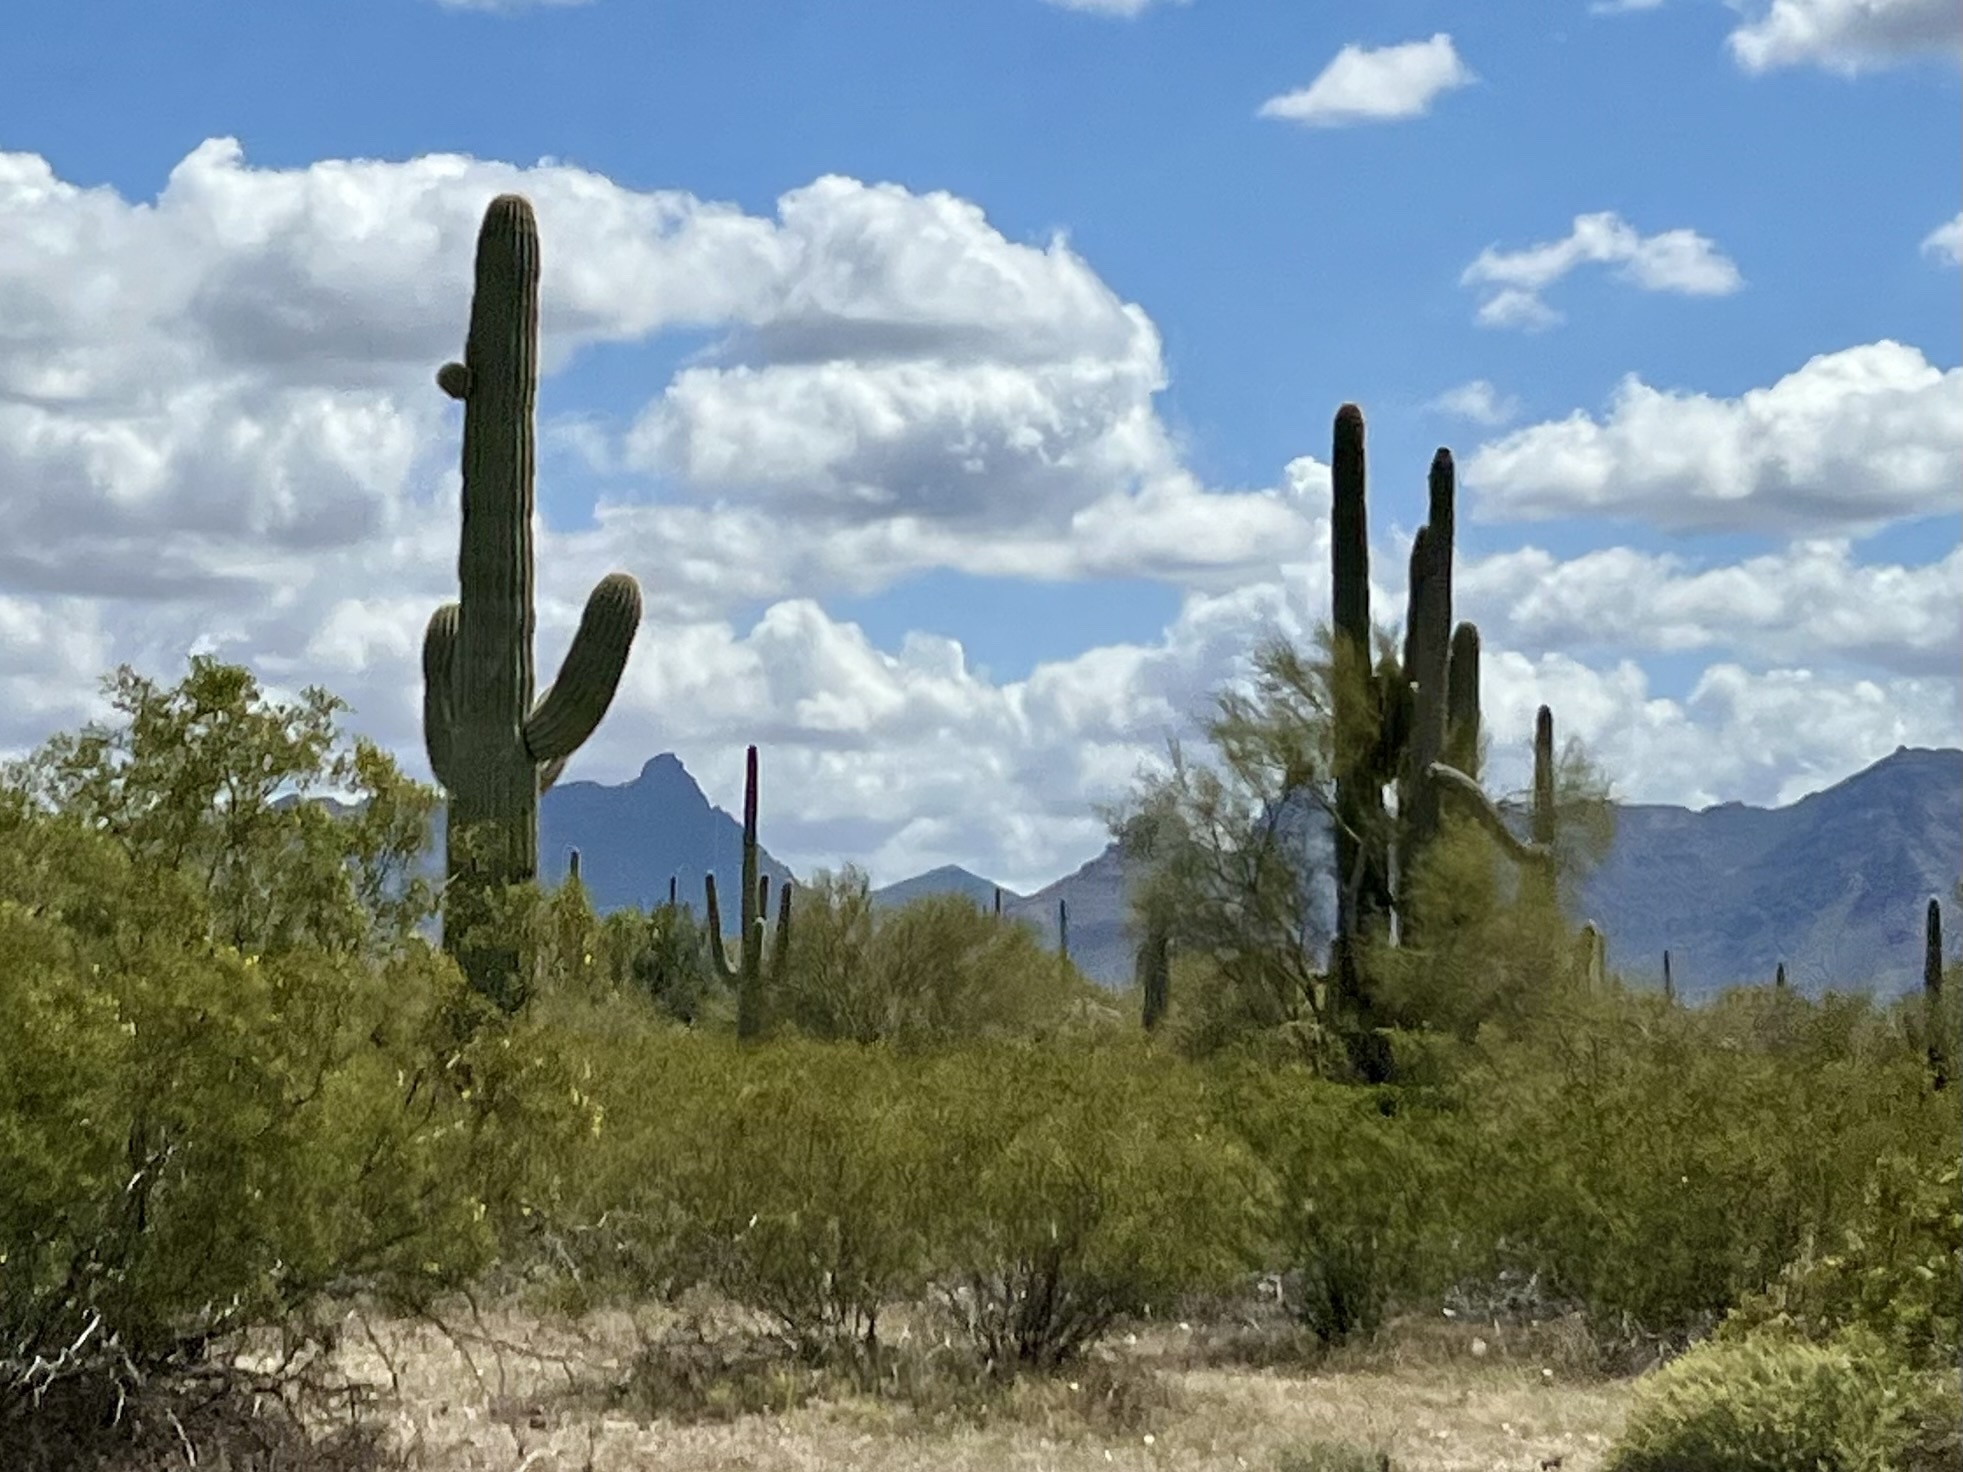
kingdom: Plantae
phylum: Tracheophyta
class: Magnoliopsida
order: Caryophyllales
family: Cactaceae
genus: Carnegiea
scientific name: Carnegiea gigantea
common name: Saguaro
